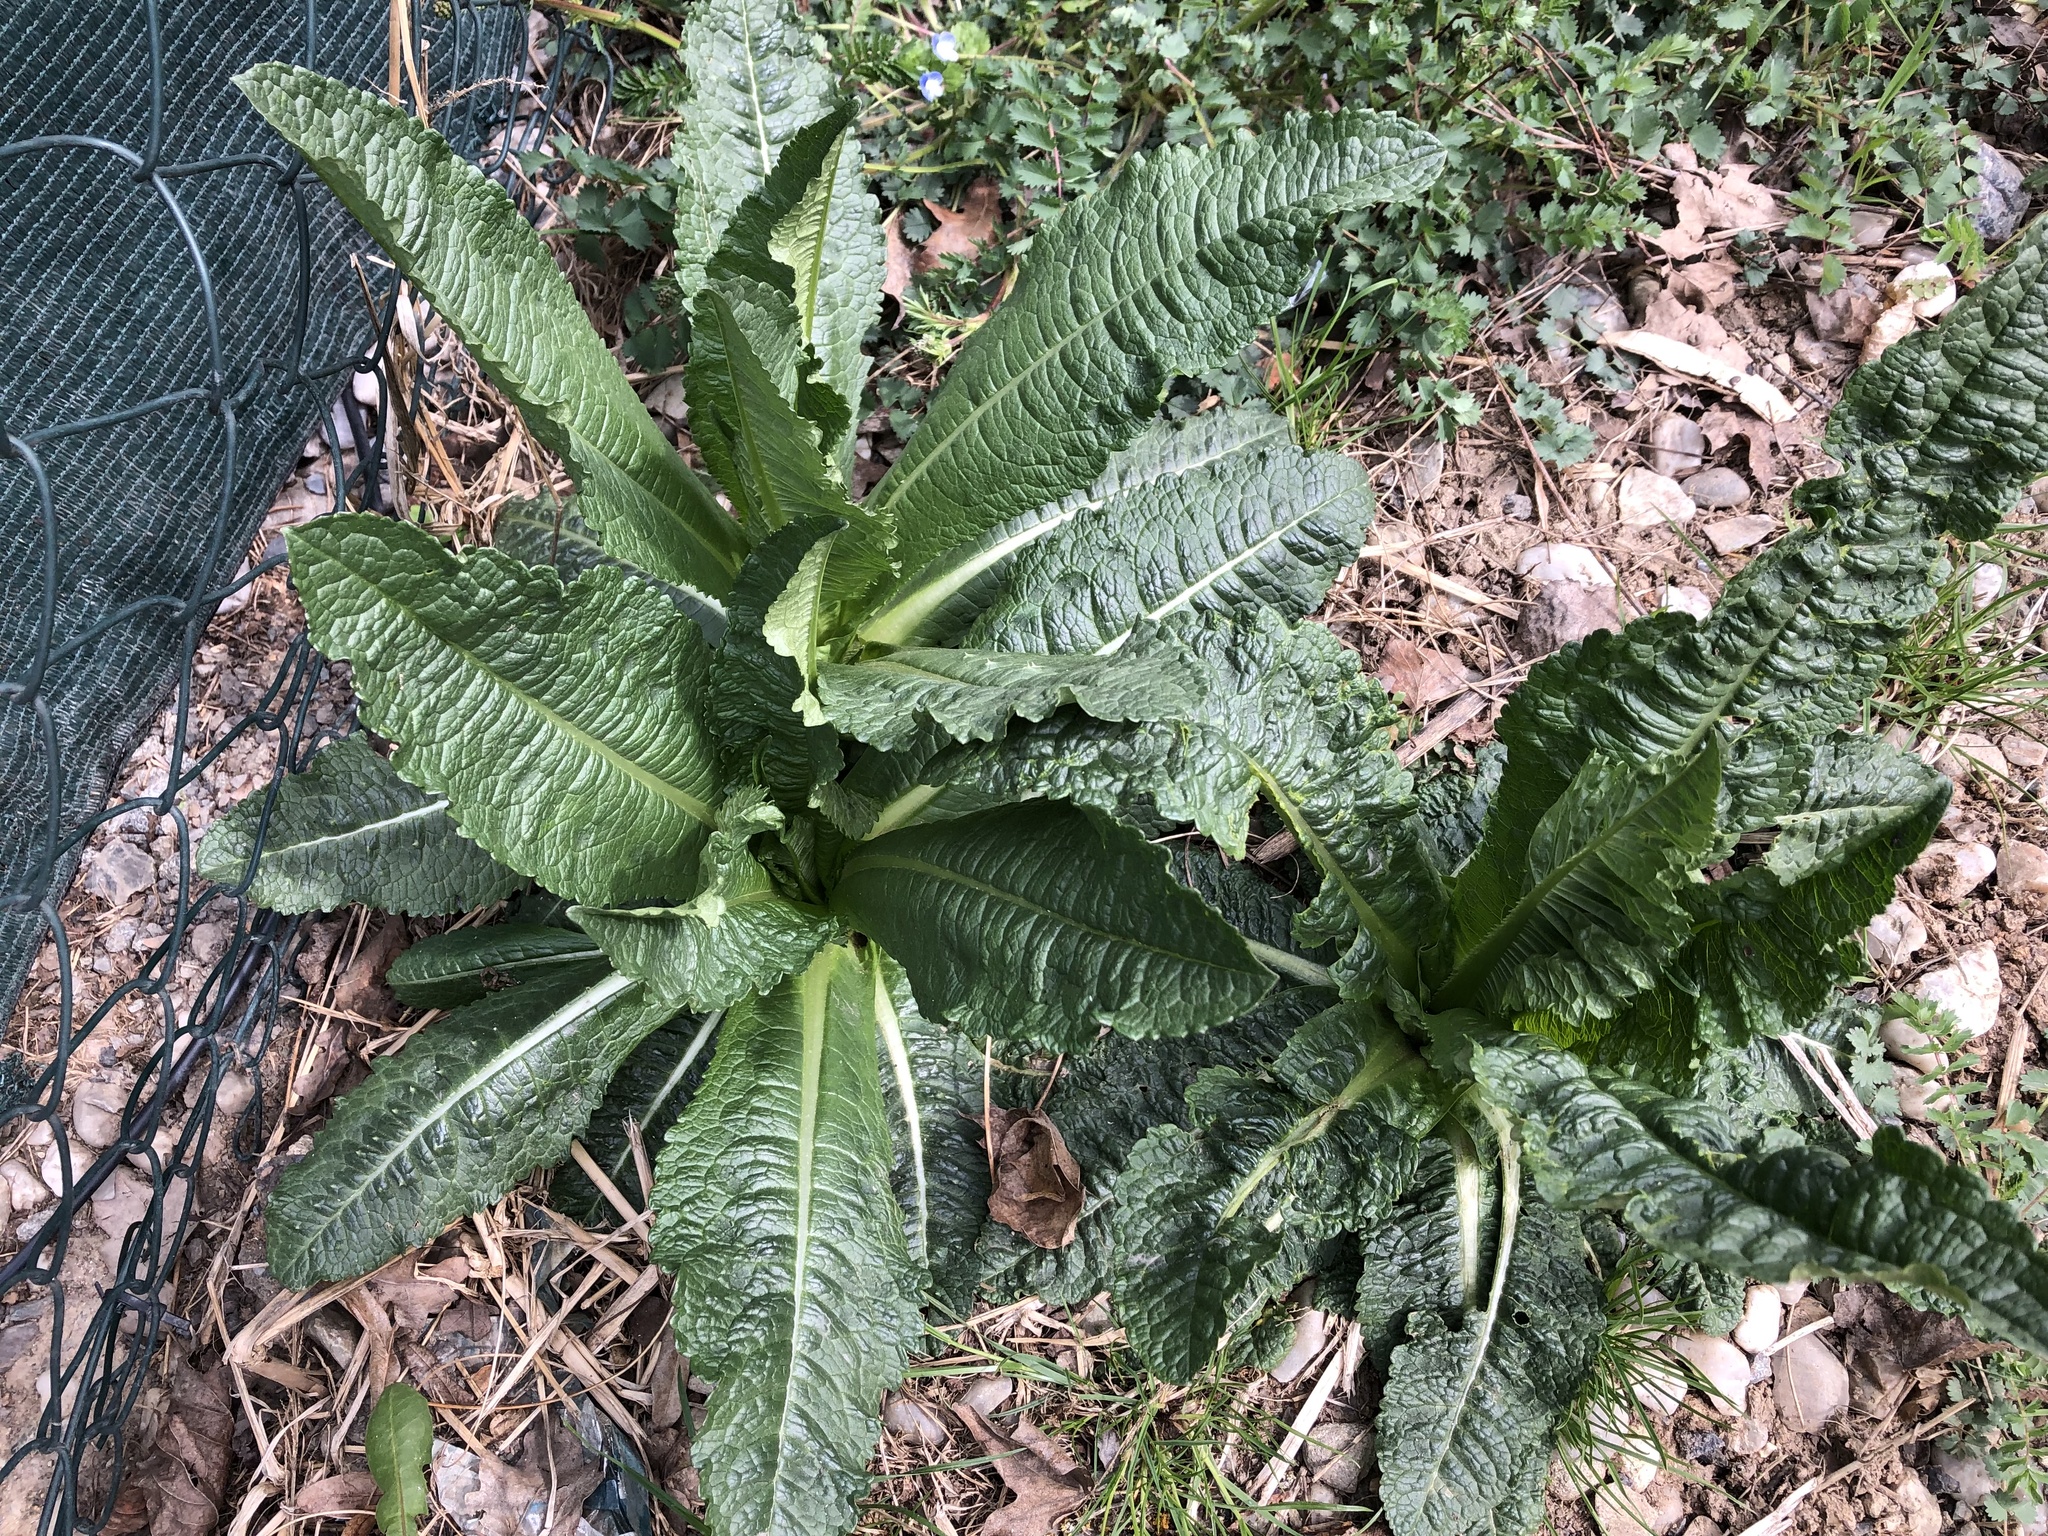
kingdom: Plantae
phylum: Tracheophyta
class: Magnoliopsida
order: Dipsacales
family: Caprifoliaceae
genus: Dipsacus
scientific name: Dipsacus fullonum
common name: Teasel
